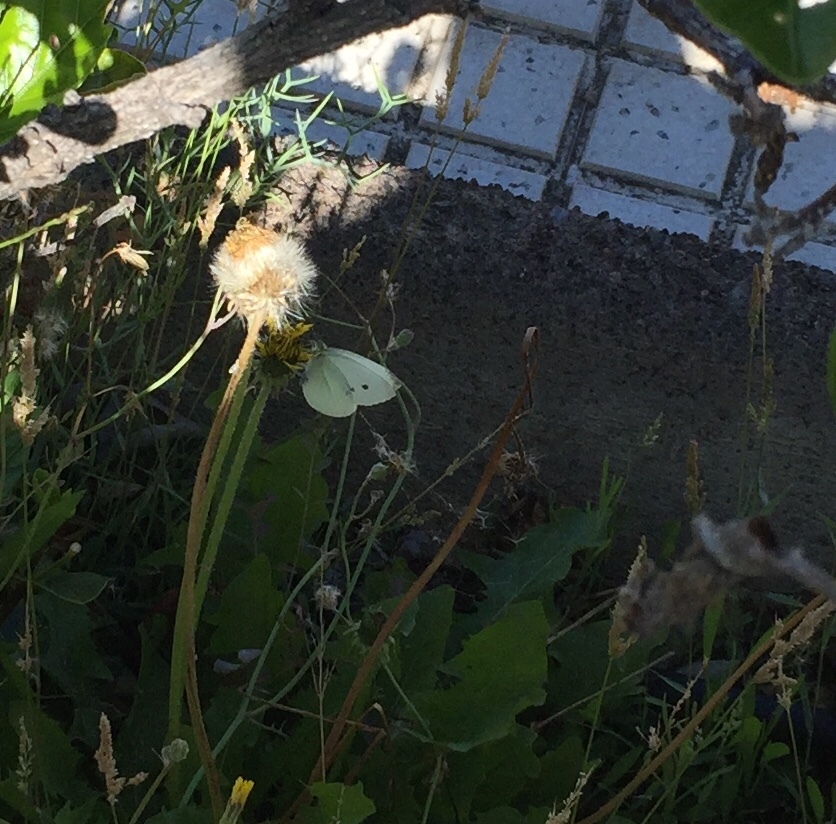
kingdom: Animalia
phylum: Arthropoda
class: Insecta
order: Lepidoptera
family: Pieridae
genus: Pieris
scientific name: Pieris rapae
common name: Small white
